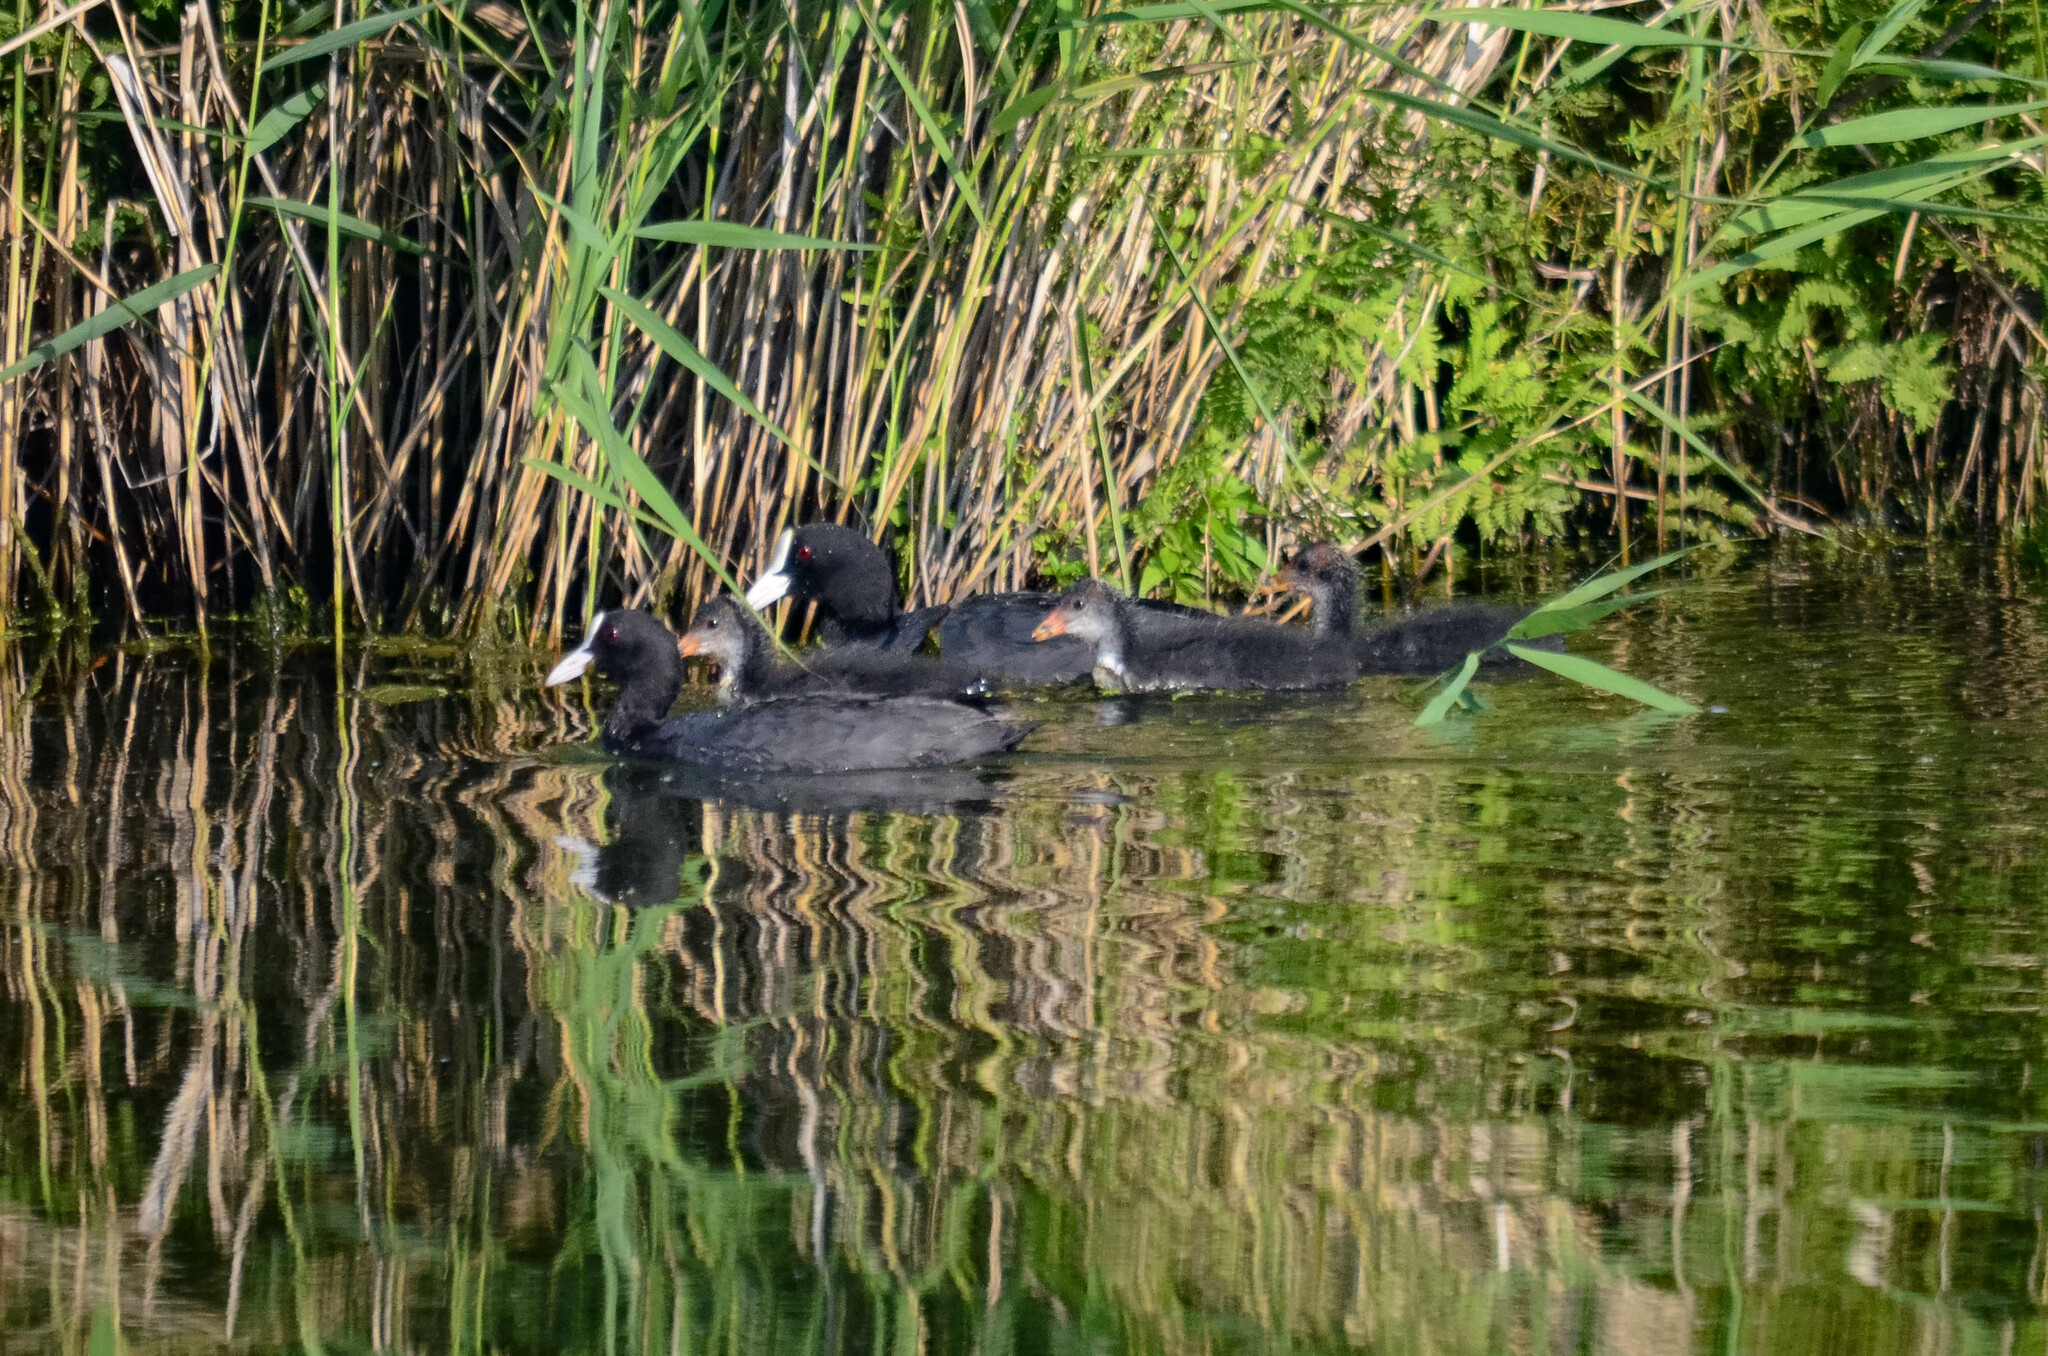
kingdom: Animalia
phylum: Chordata
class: Aves
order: Gruiformes
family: Rallidae
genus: Fulica
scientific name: Fulica atra
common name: Eurasian coot
